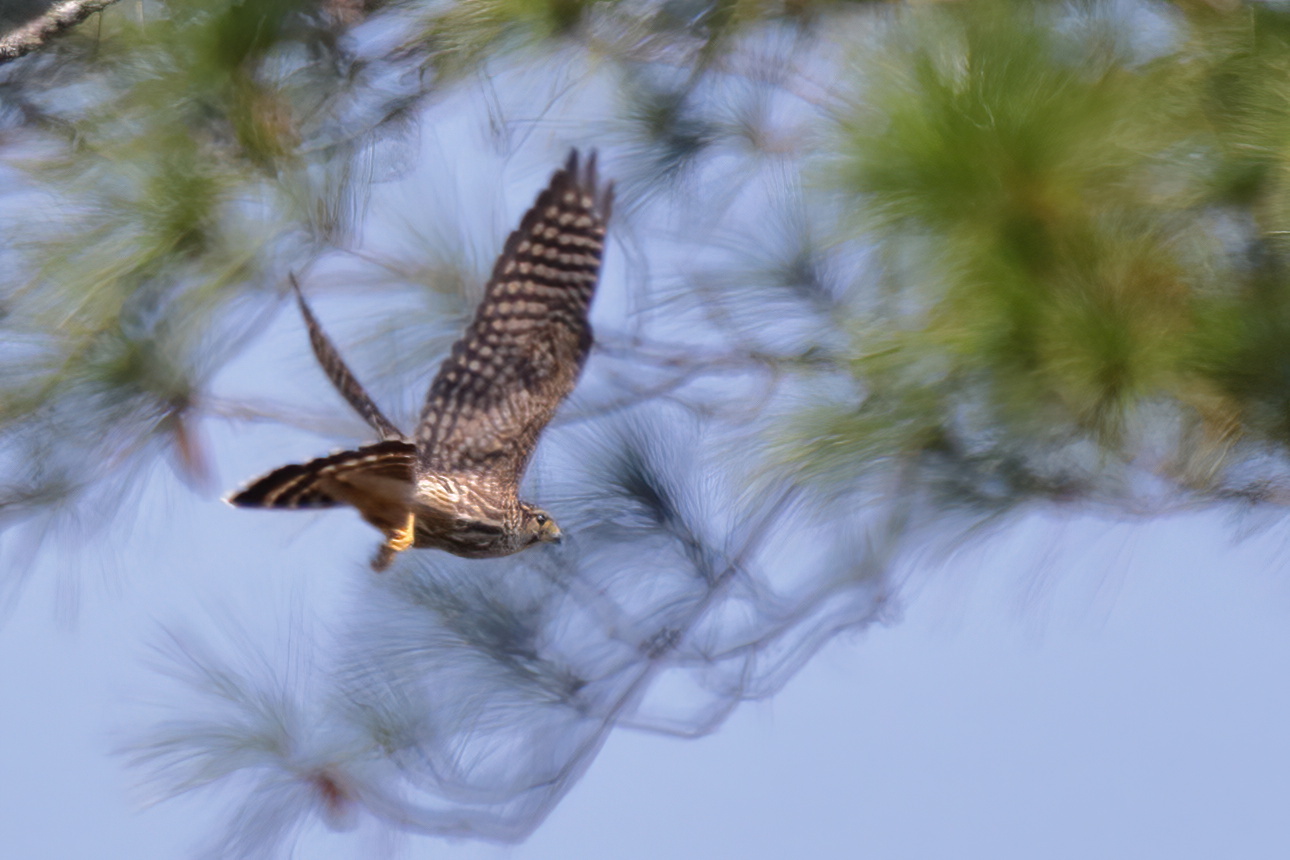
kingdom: Animalia
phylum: Chordata
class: Aves
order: Falconiformes
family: Falconidae
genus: Falco
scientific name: Falco columbarius
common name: Merlin
